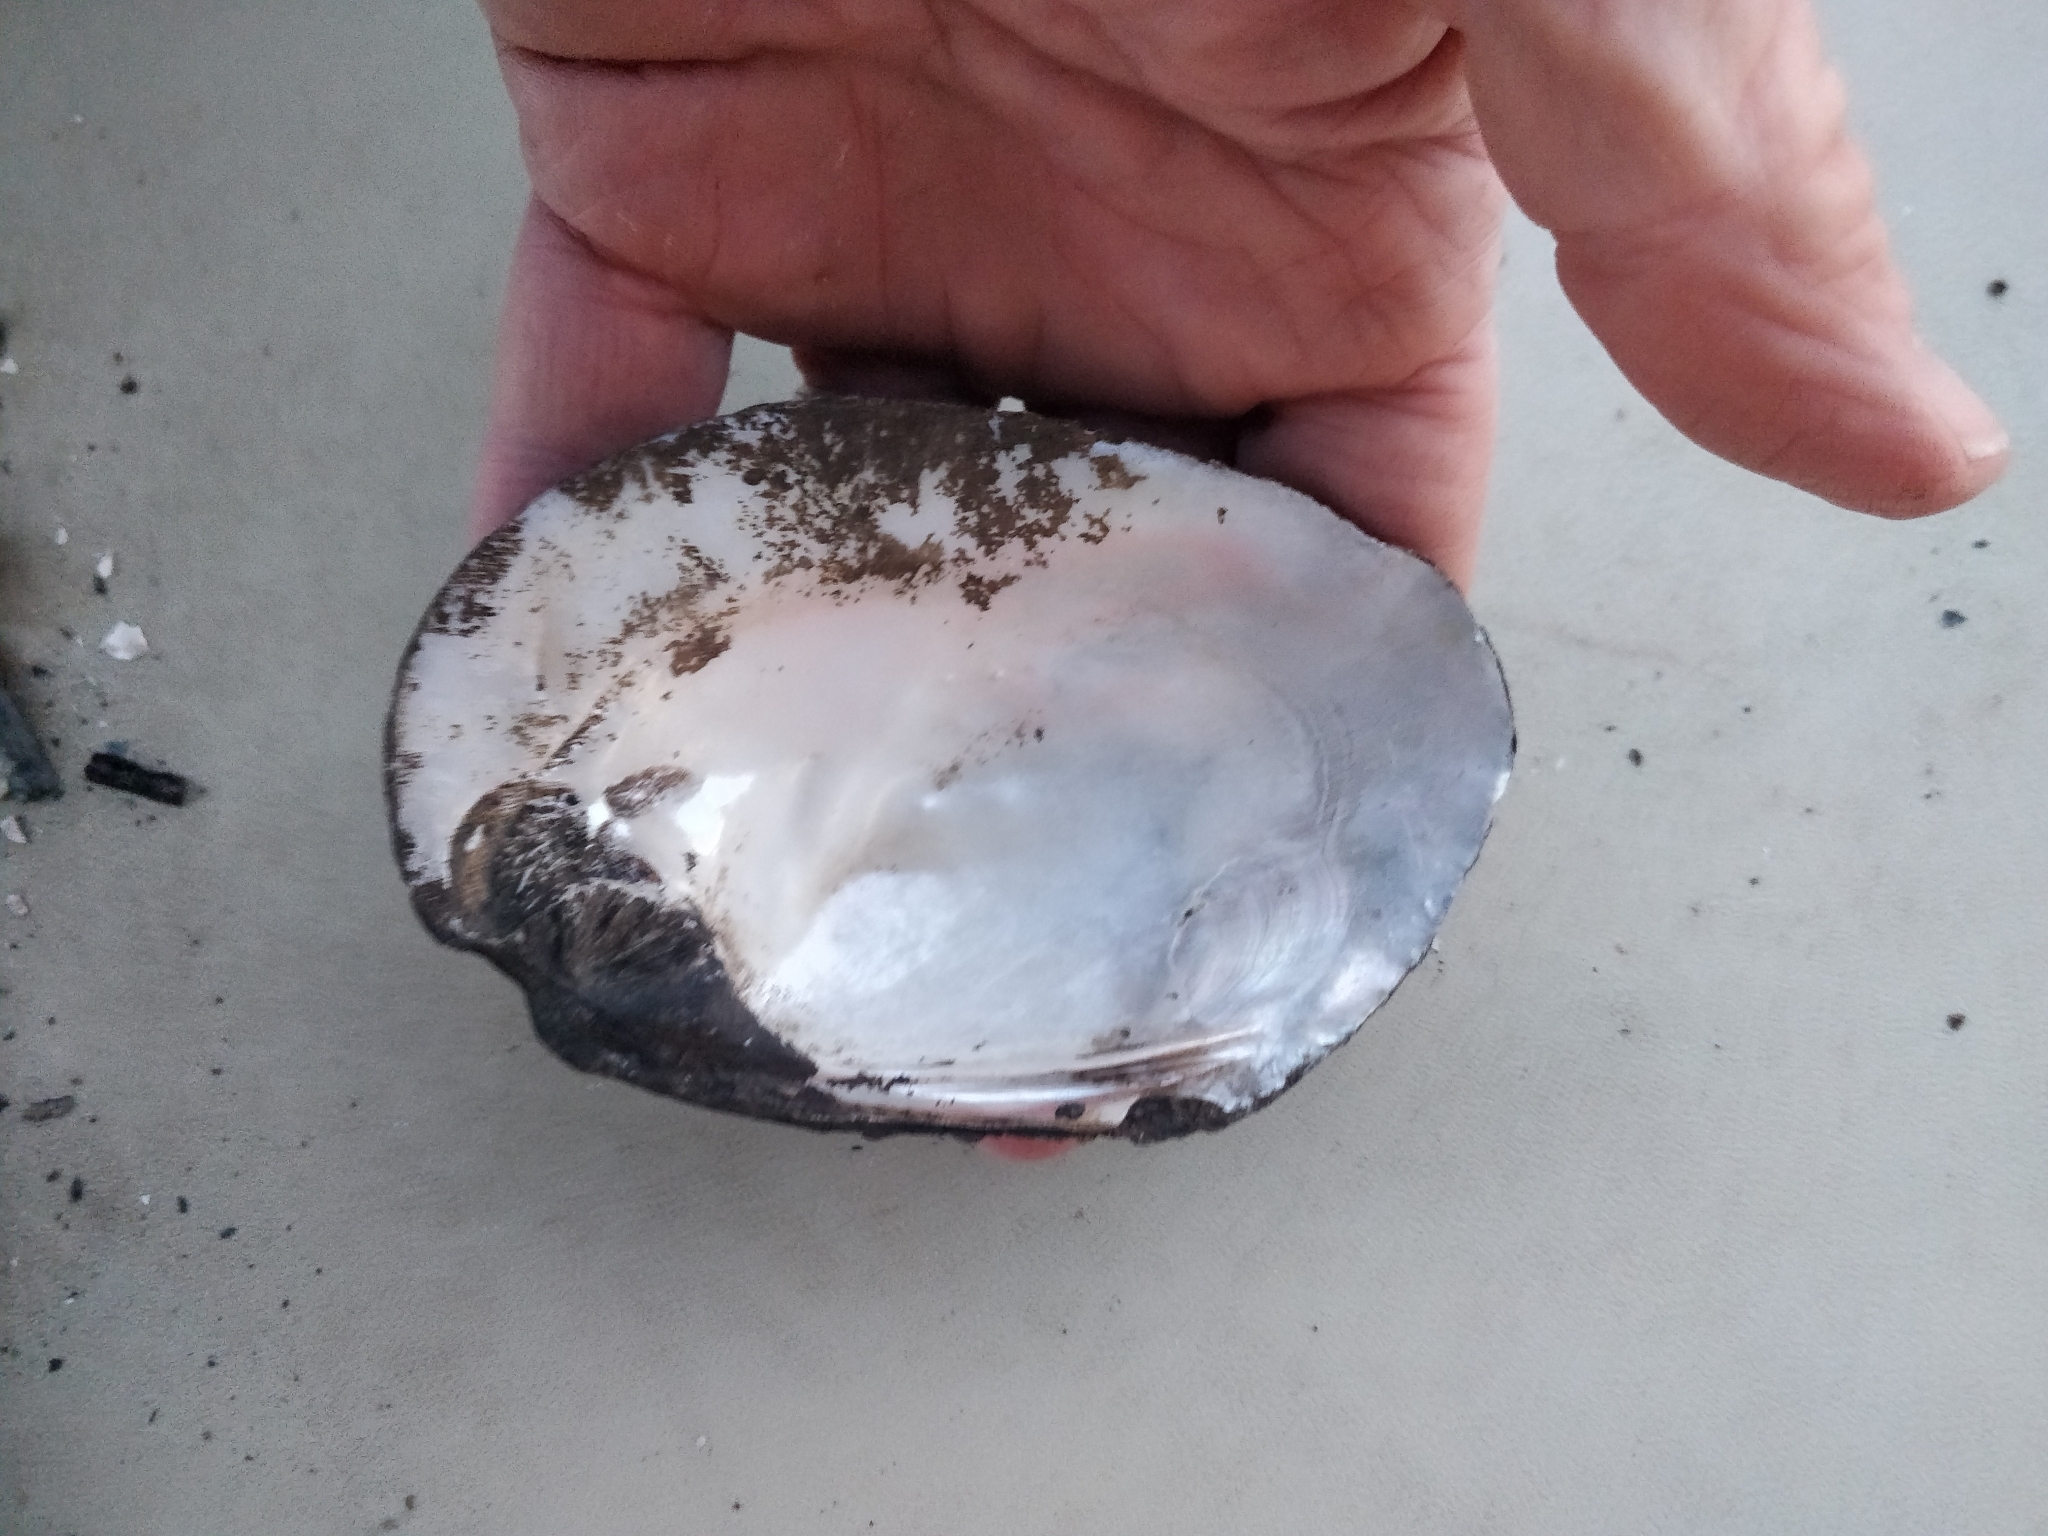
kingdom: Animalia
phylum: Mollusca
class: Bivalvia
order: Unionida
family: Unionidae
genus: Amblema
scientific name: Amblema plicata
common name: Threeridge
